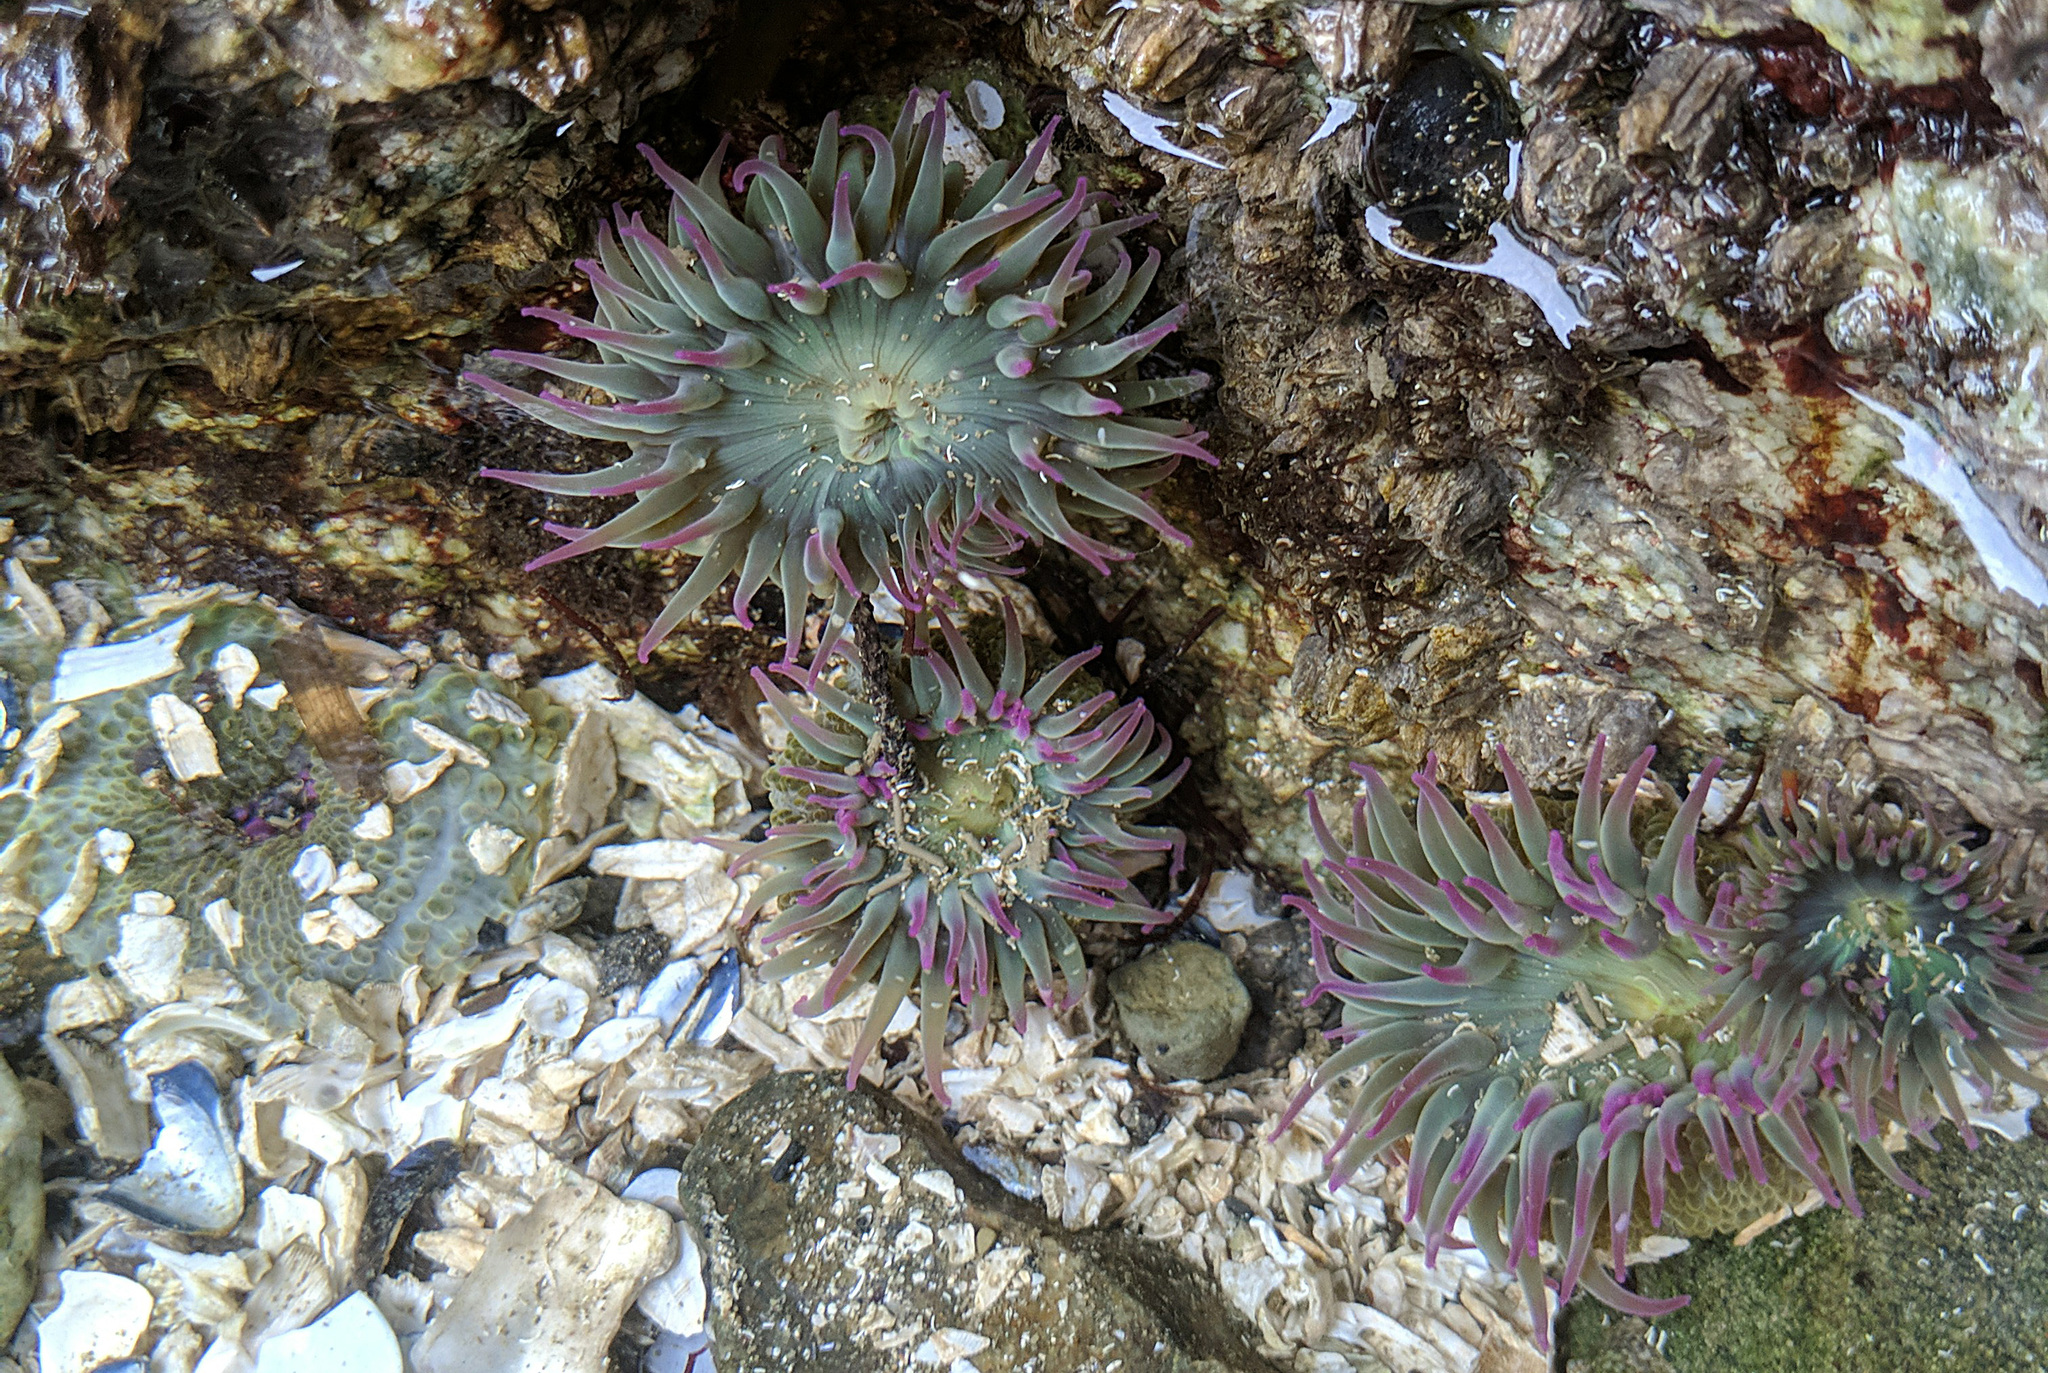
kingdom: Animalia
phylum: Cnidaria
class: Anthozoa
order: Actiniaria
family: Actiniidae
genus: Anthopleura
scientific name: Anthopleura elegantissima
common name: Clonal anemone
